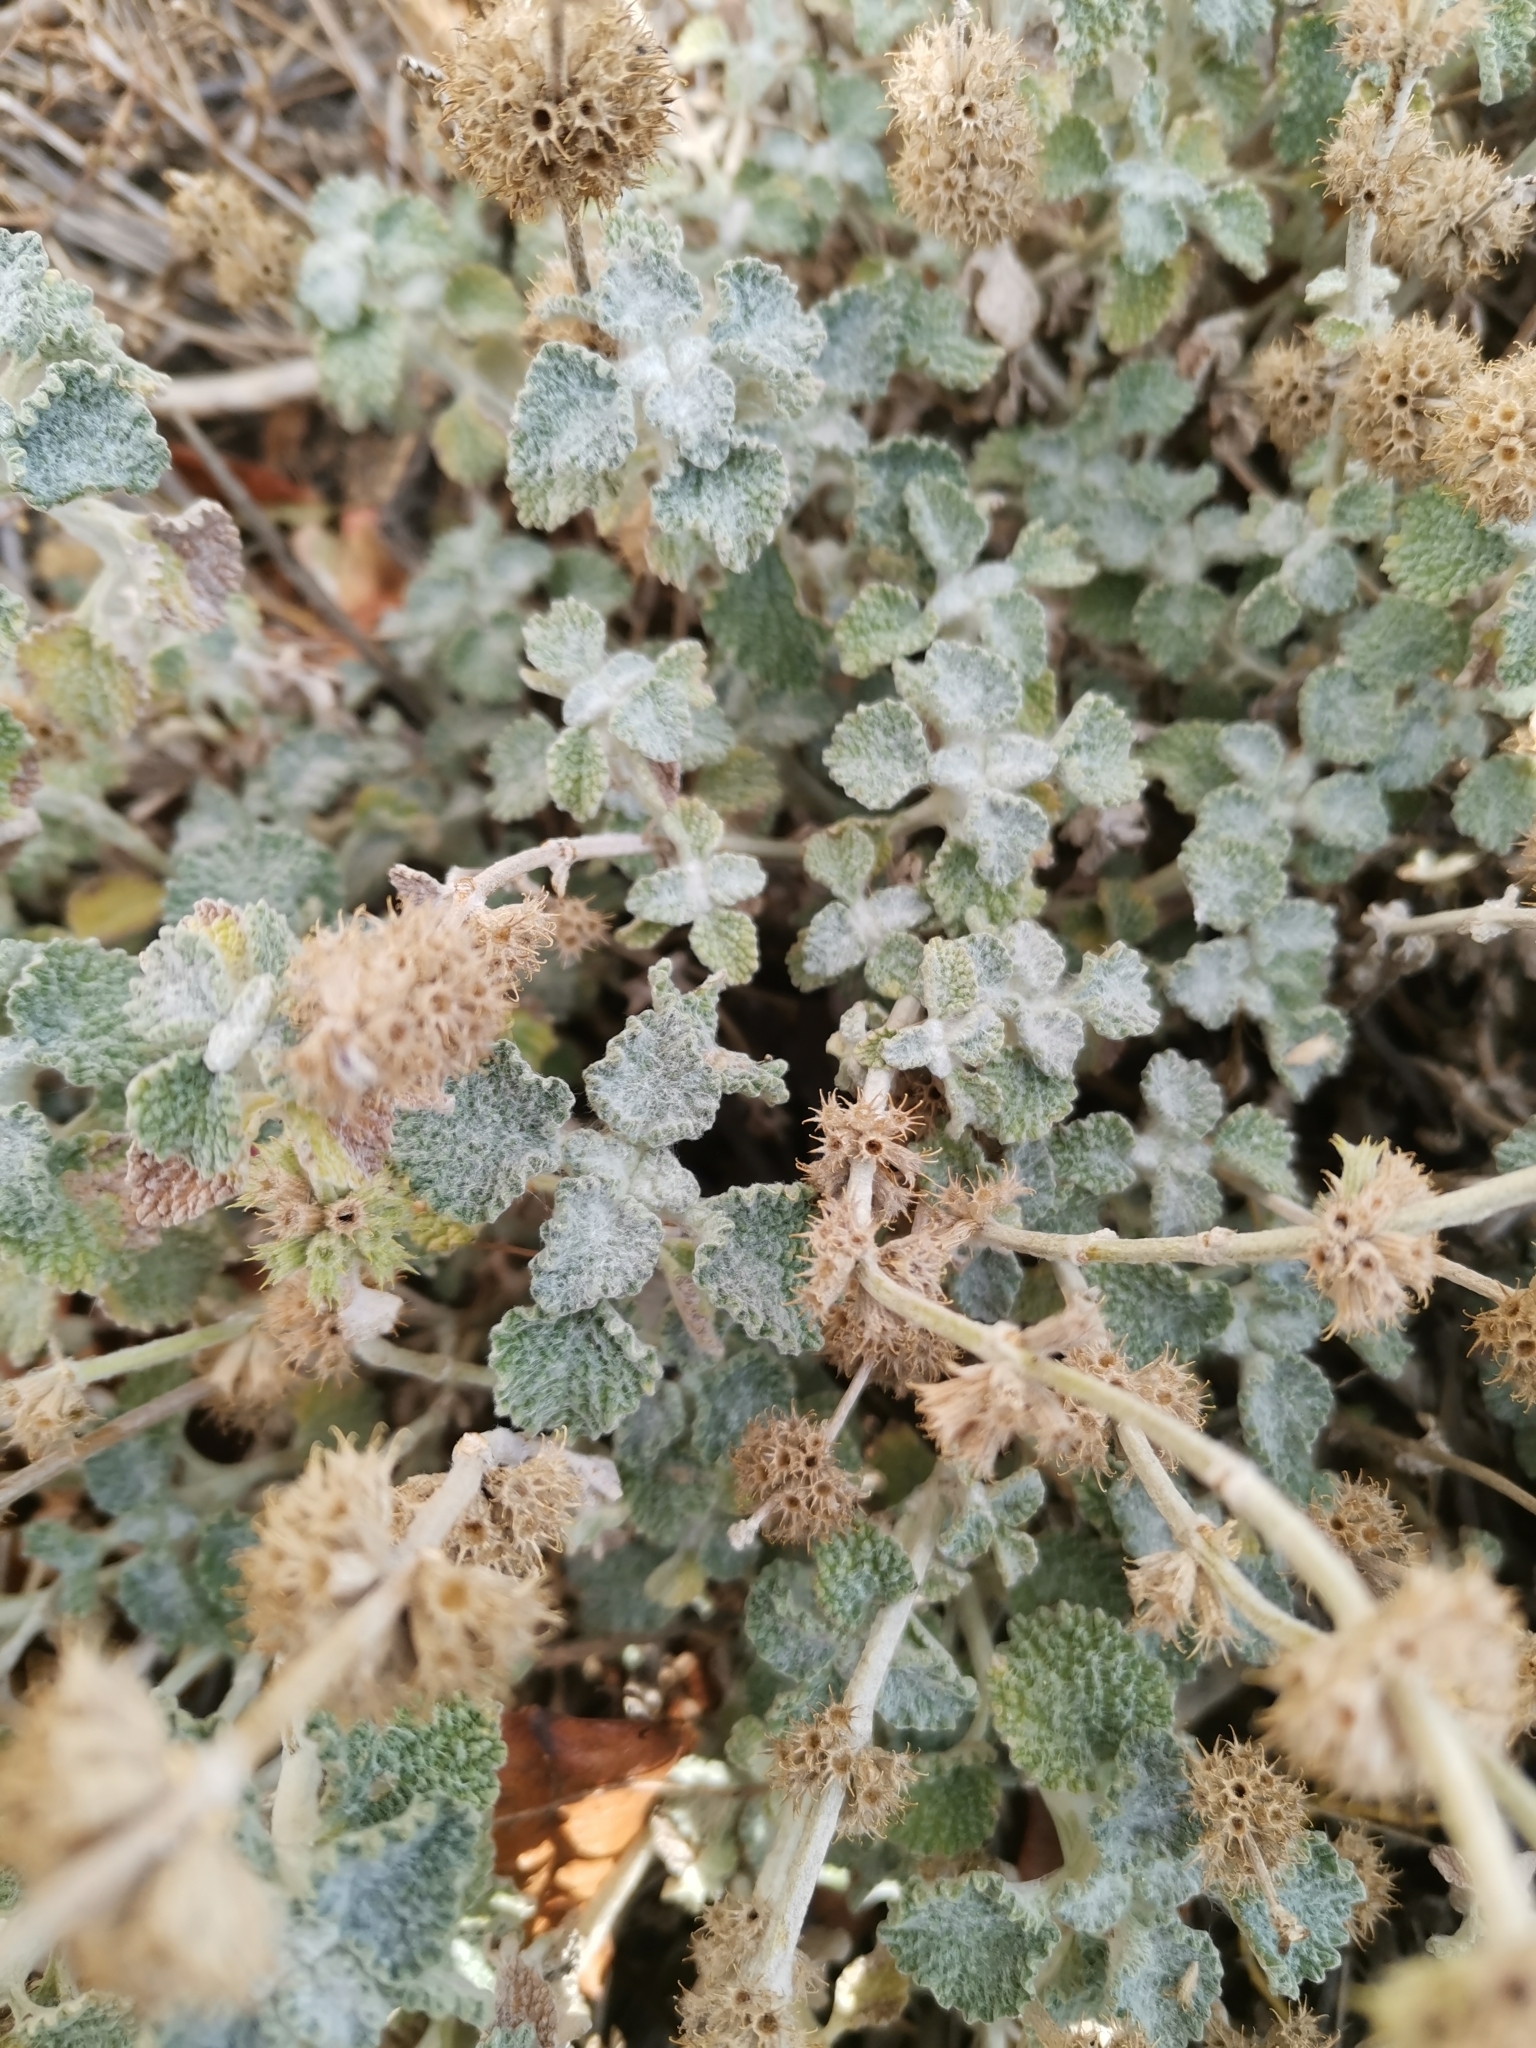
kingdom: Plantae
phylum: Tracheophyta
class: Magnoliopsida
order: Lamiales
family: Lamiaceae
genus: Marrubium
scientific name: Marrubium vulgare
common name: Horehound
